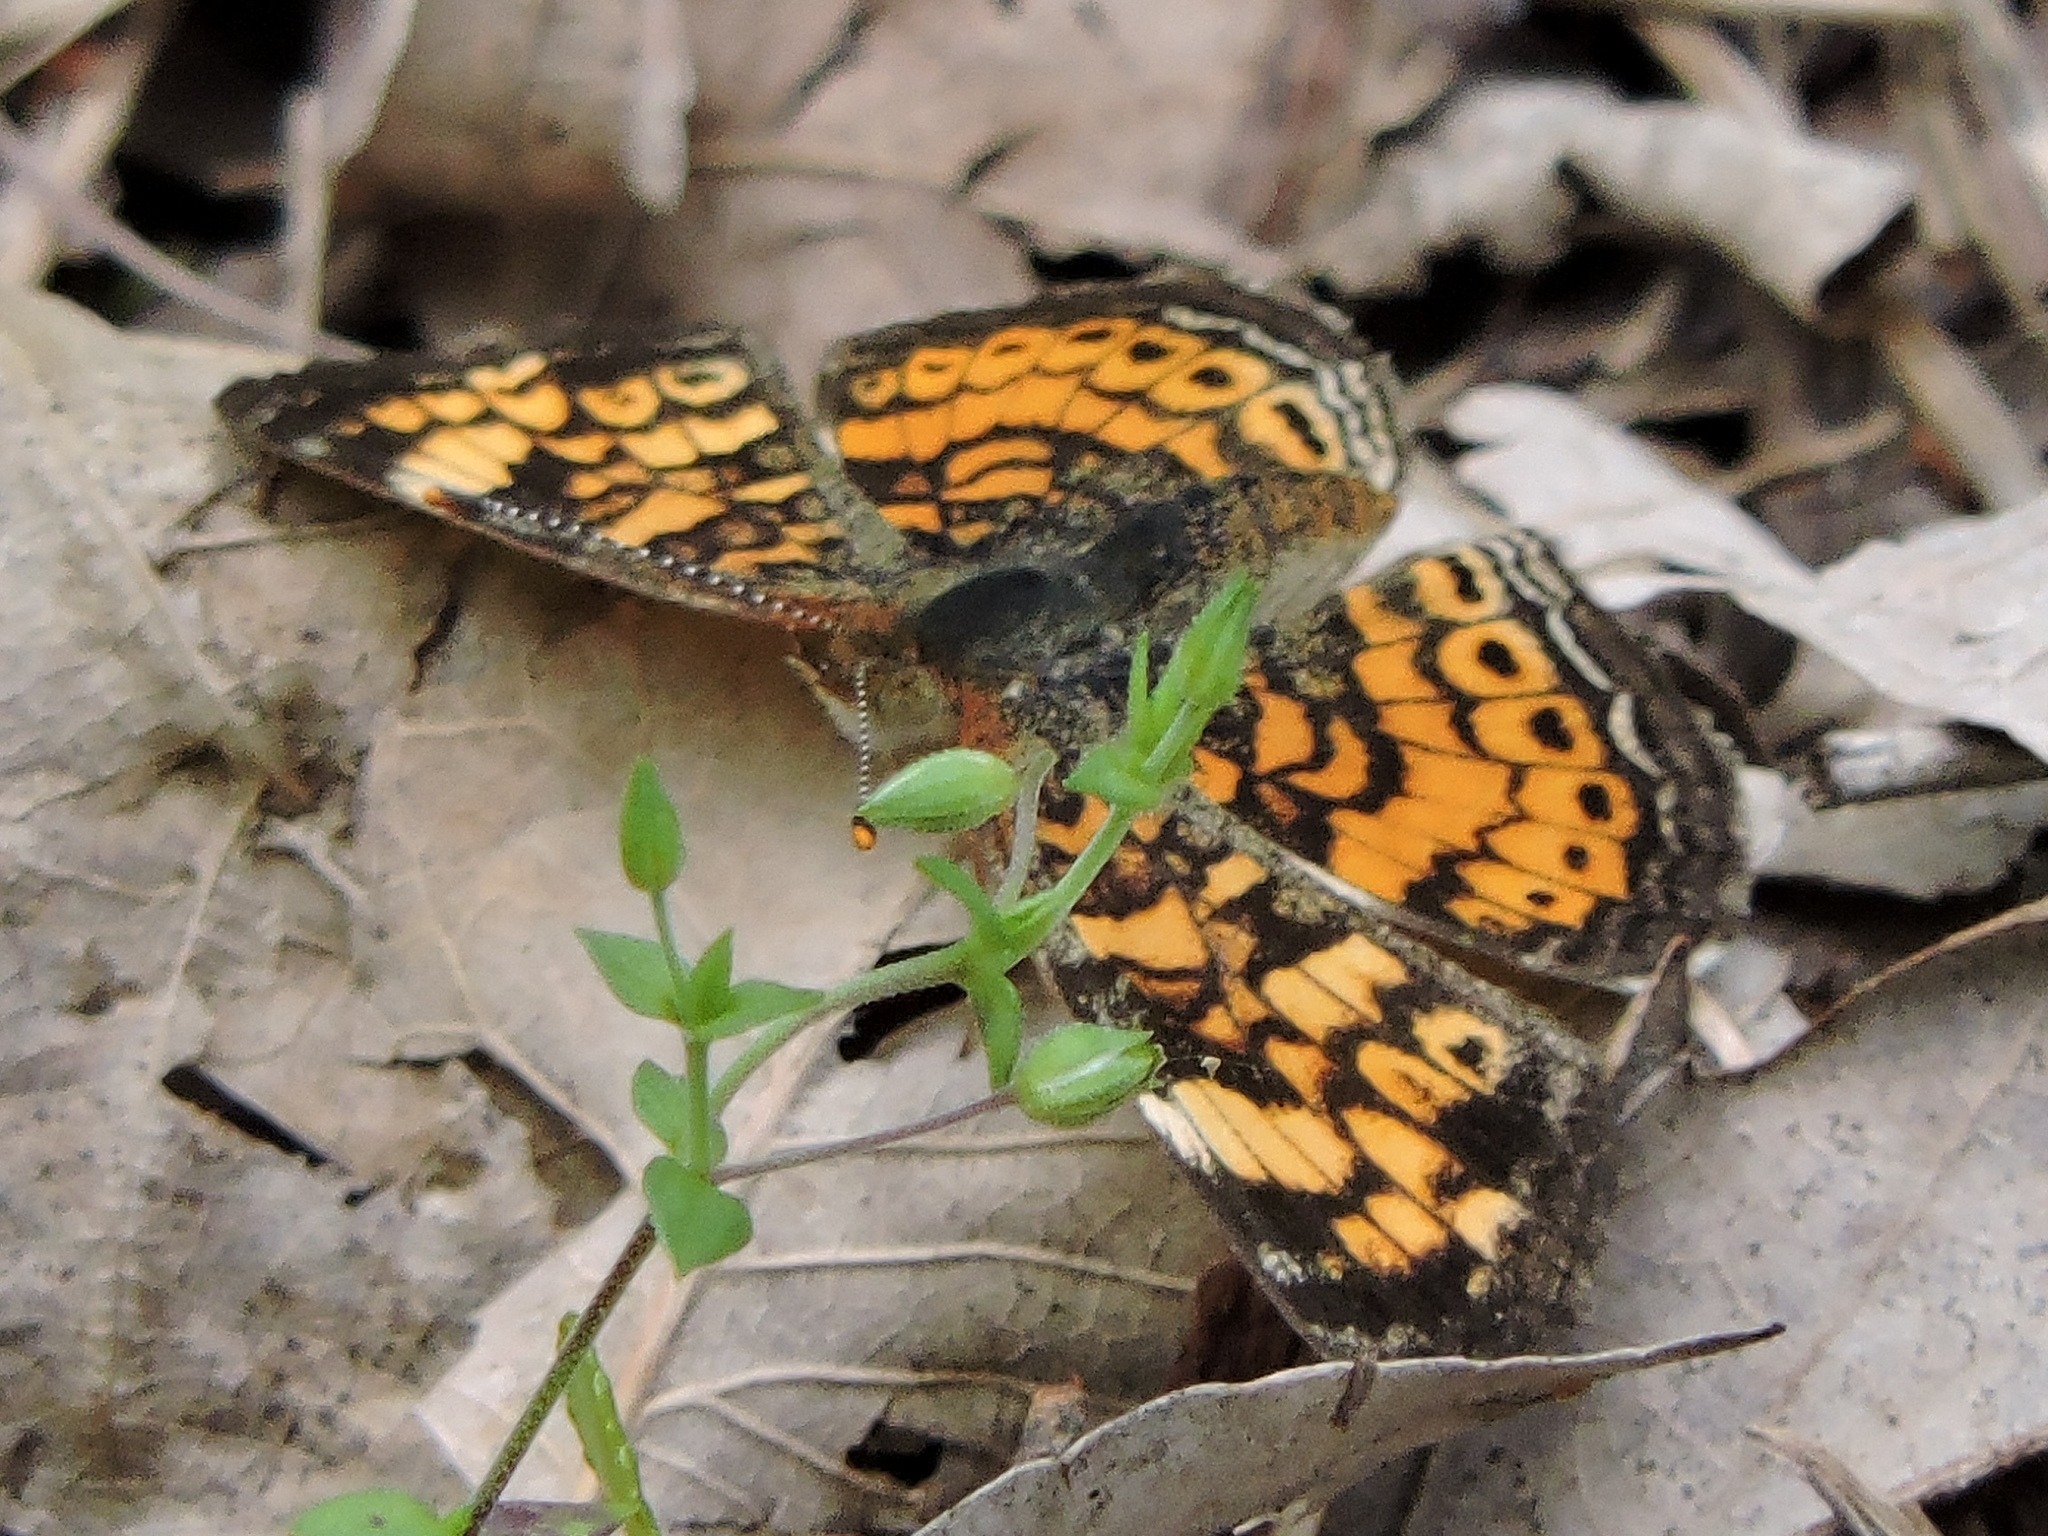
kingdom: Animalia
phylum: Arthropoda
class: Insecta
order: Lepidoptera
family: Nymphalidae
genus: Phyciodes
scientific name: Phyciodes tharos
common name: Pearl crescent
